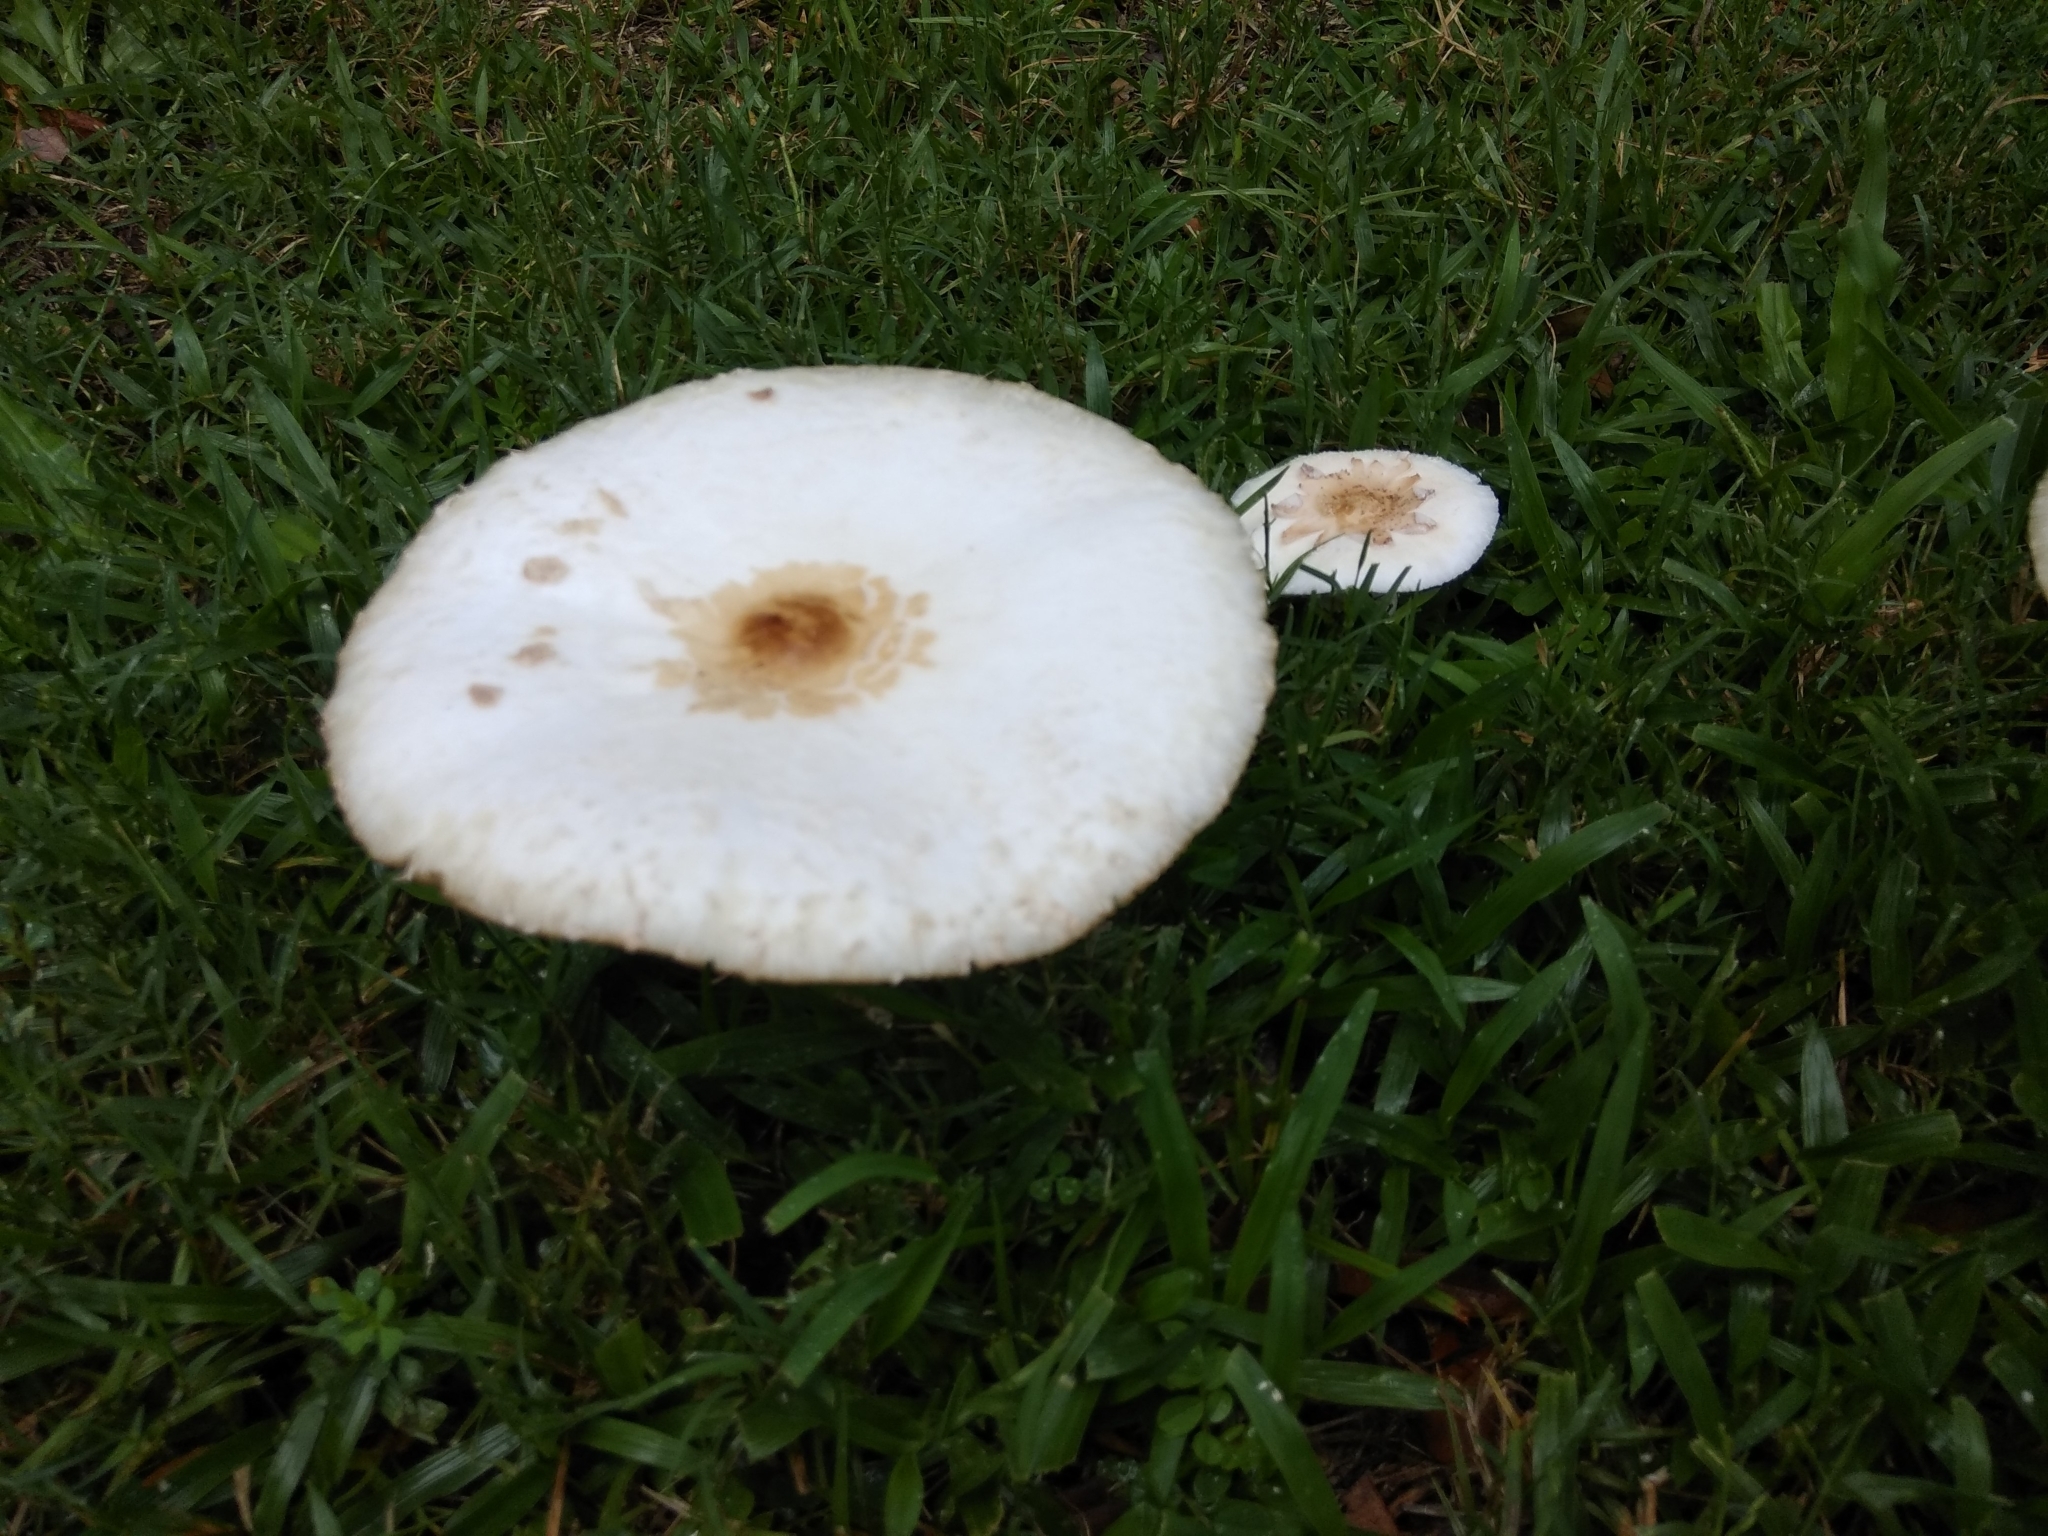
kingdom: Fungi
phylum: Basidiomycota
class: Agaricomycetes
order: Agaricales
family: Agaricaceae
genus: Chlorophyllum
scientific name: Chlorophyllum molybdites
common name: False parasol
